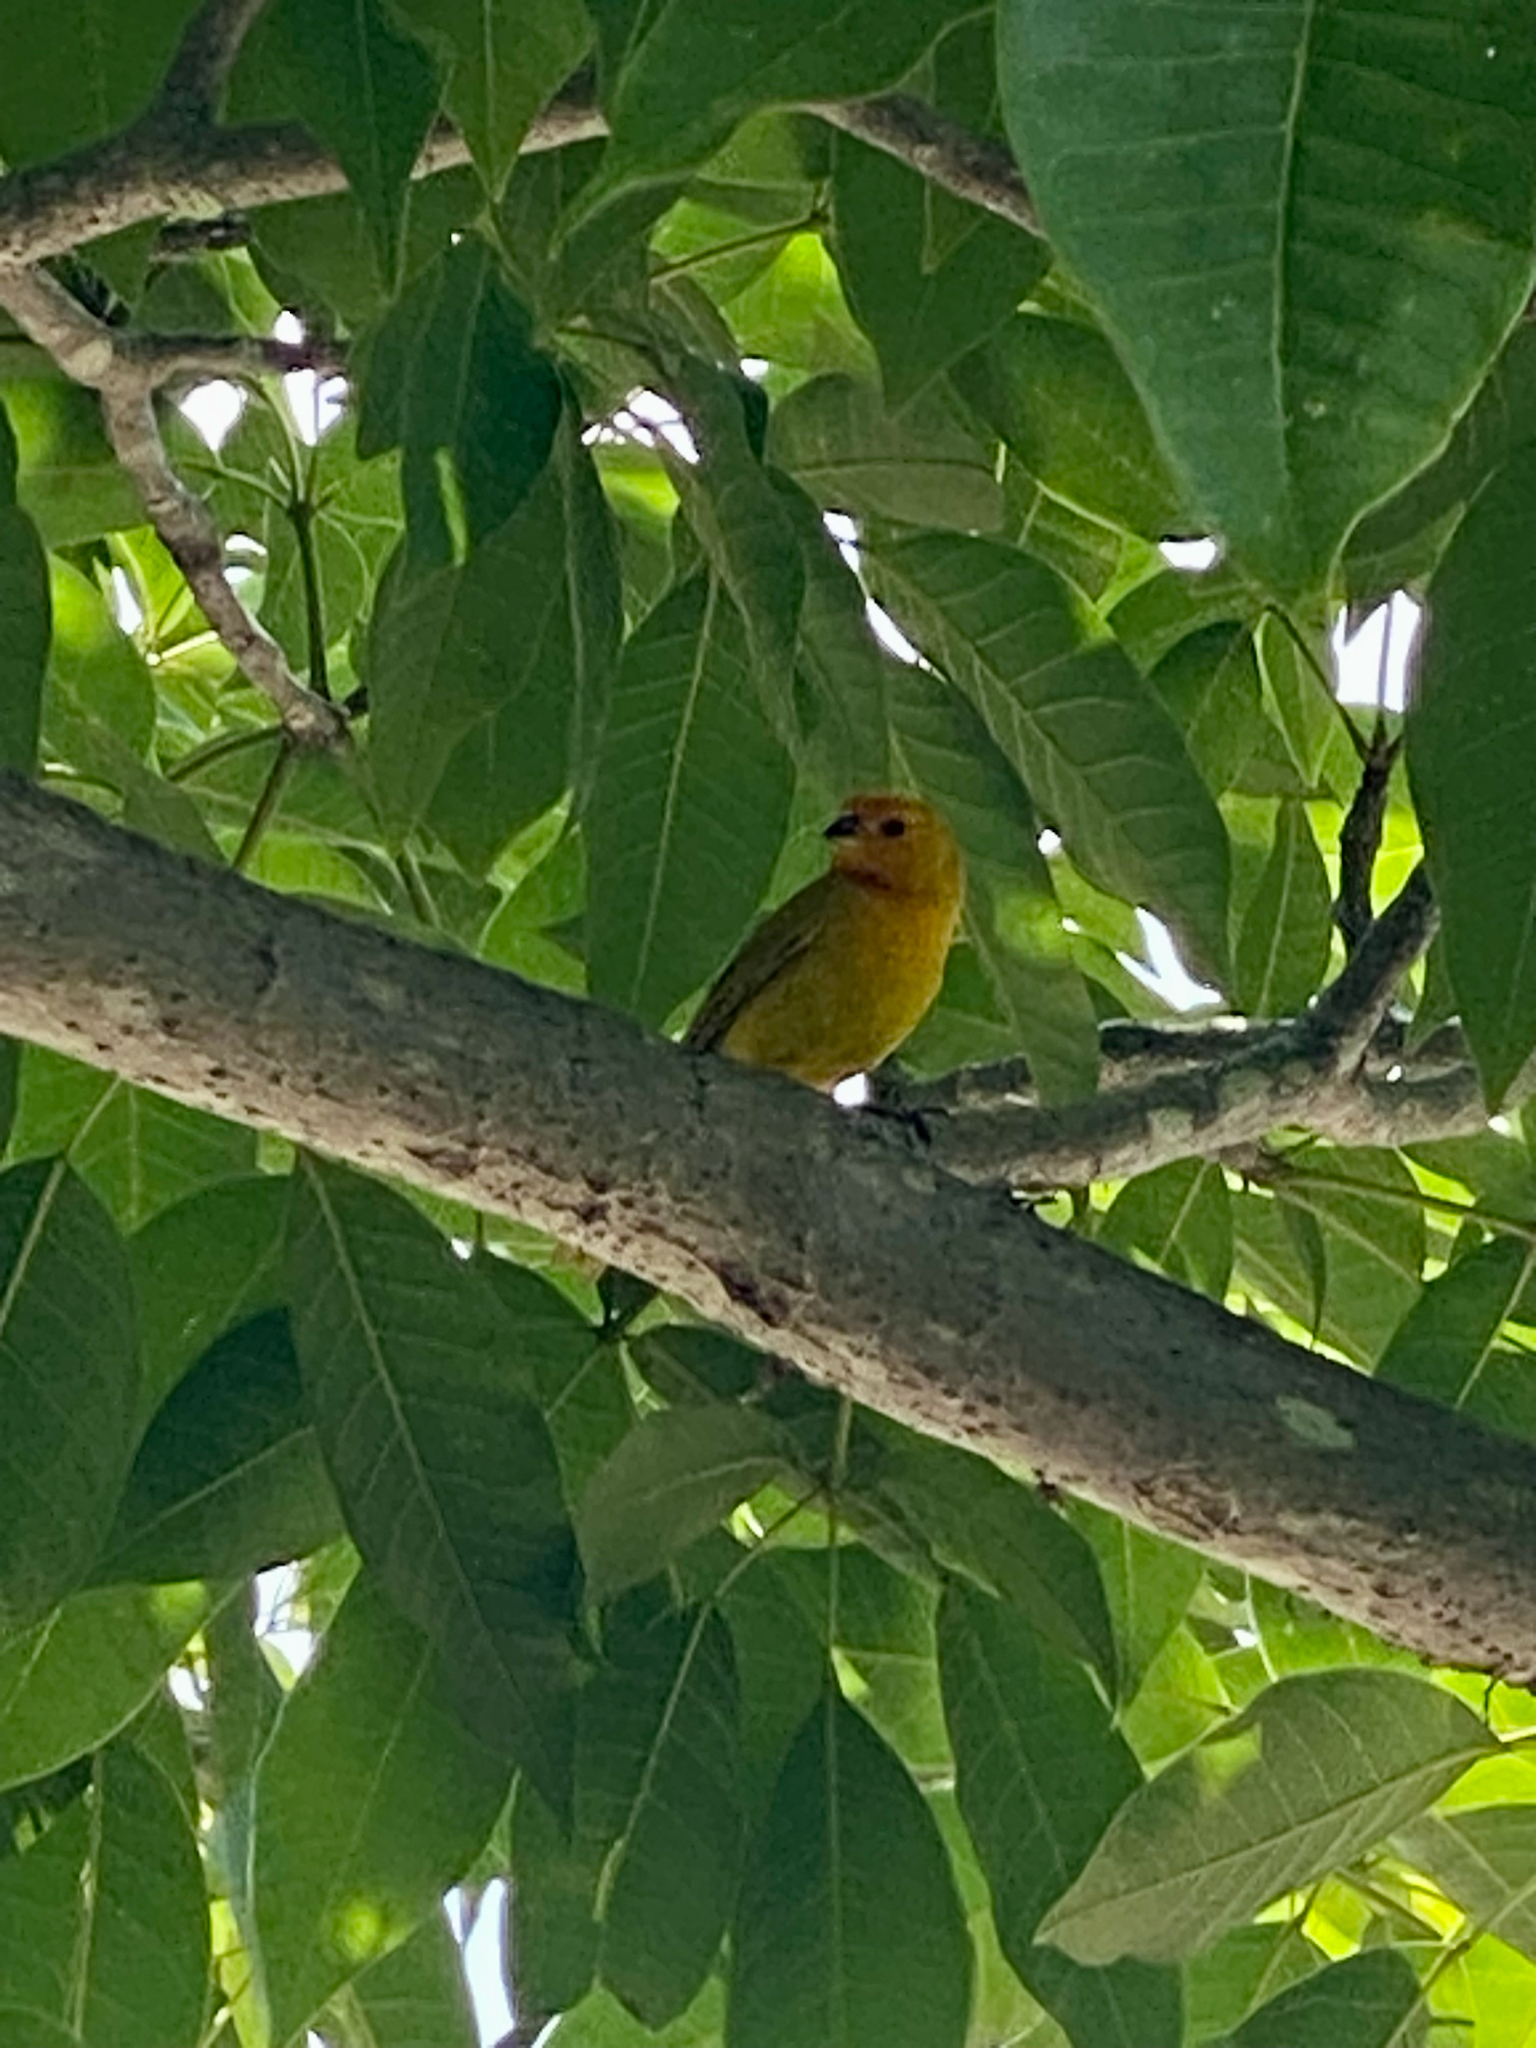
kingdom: Animalia
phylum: Chordata
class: Aves
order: Passeriformes
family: Thraupidae
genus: Sicalis
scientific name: Sicalis flaveola
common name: Saffron finch
